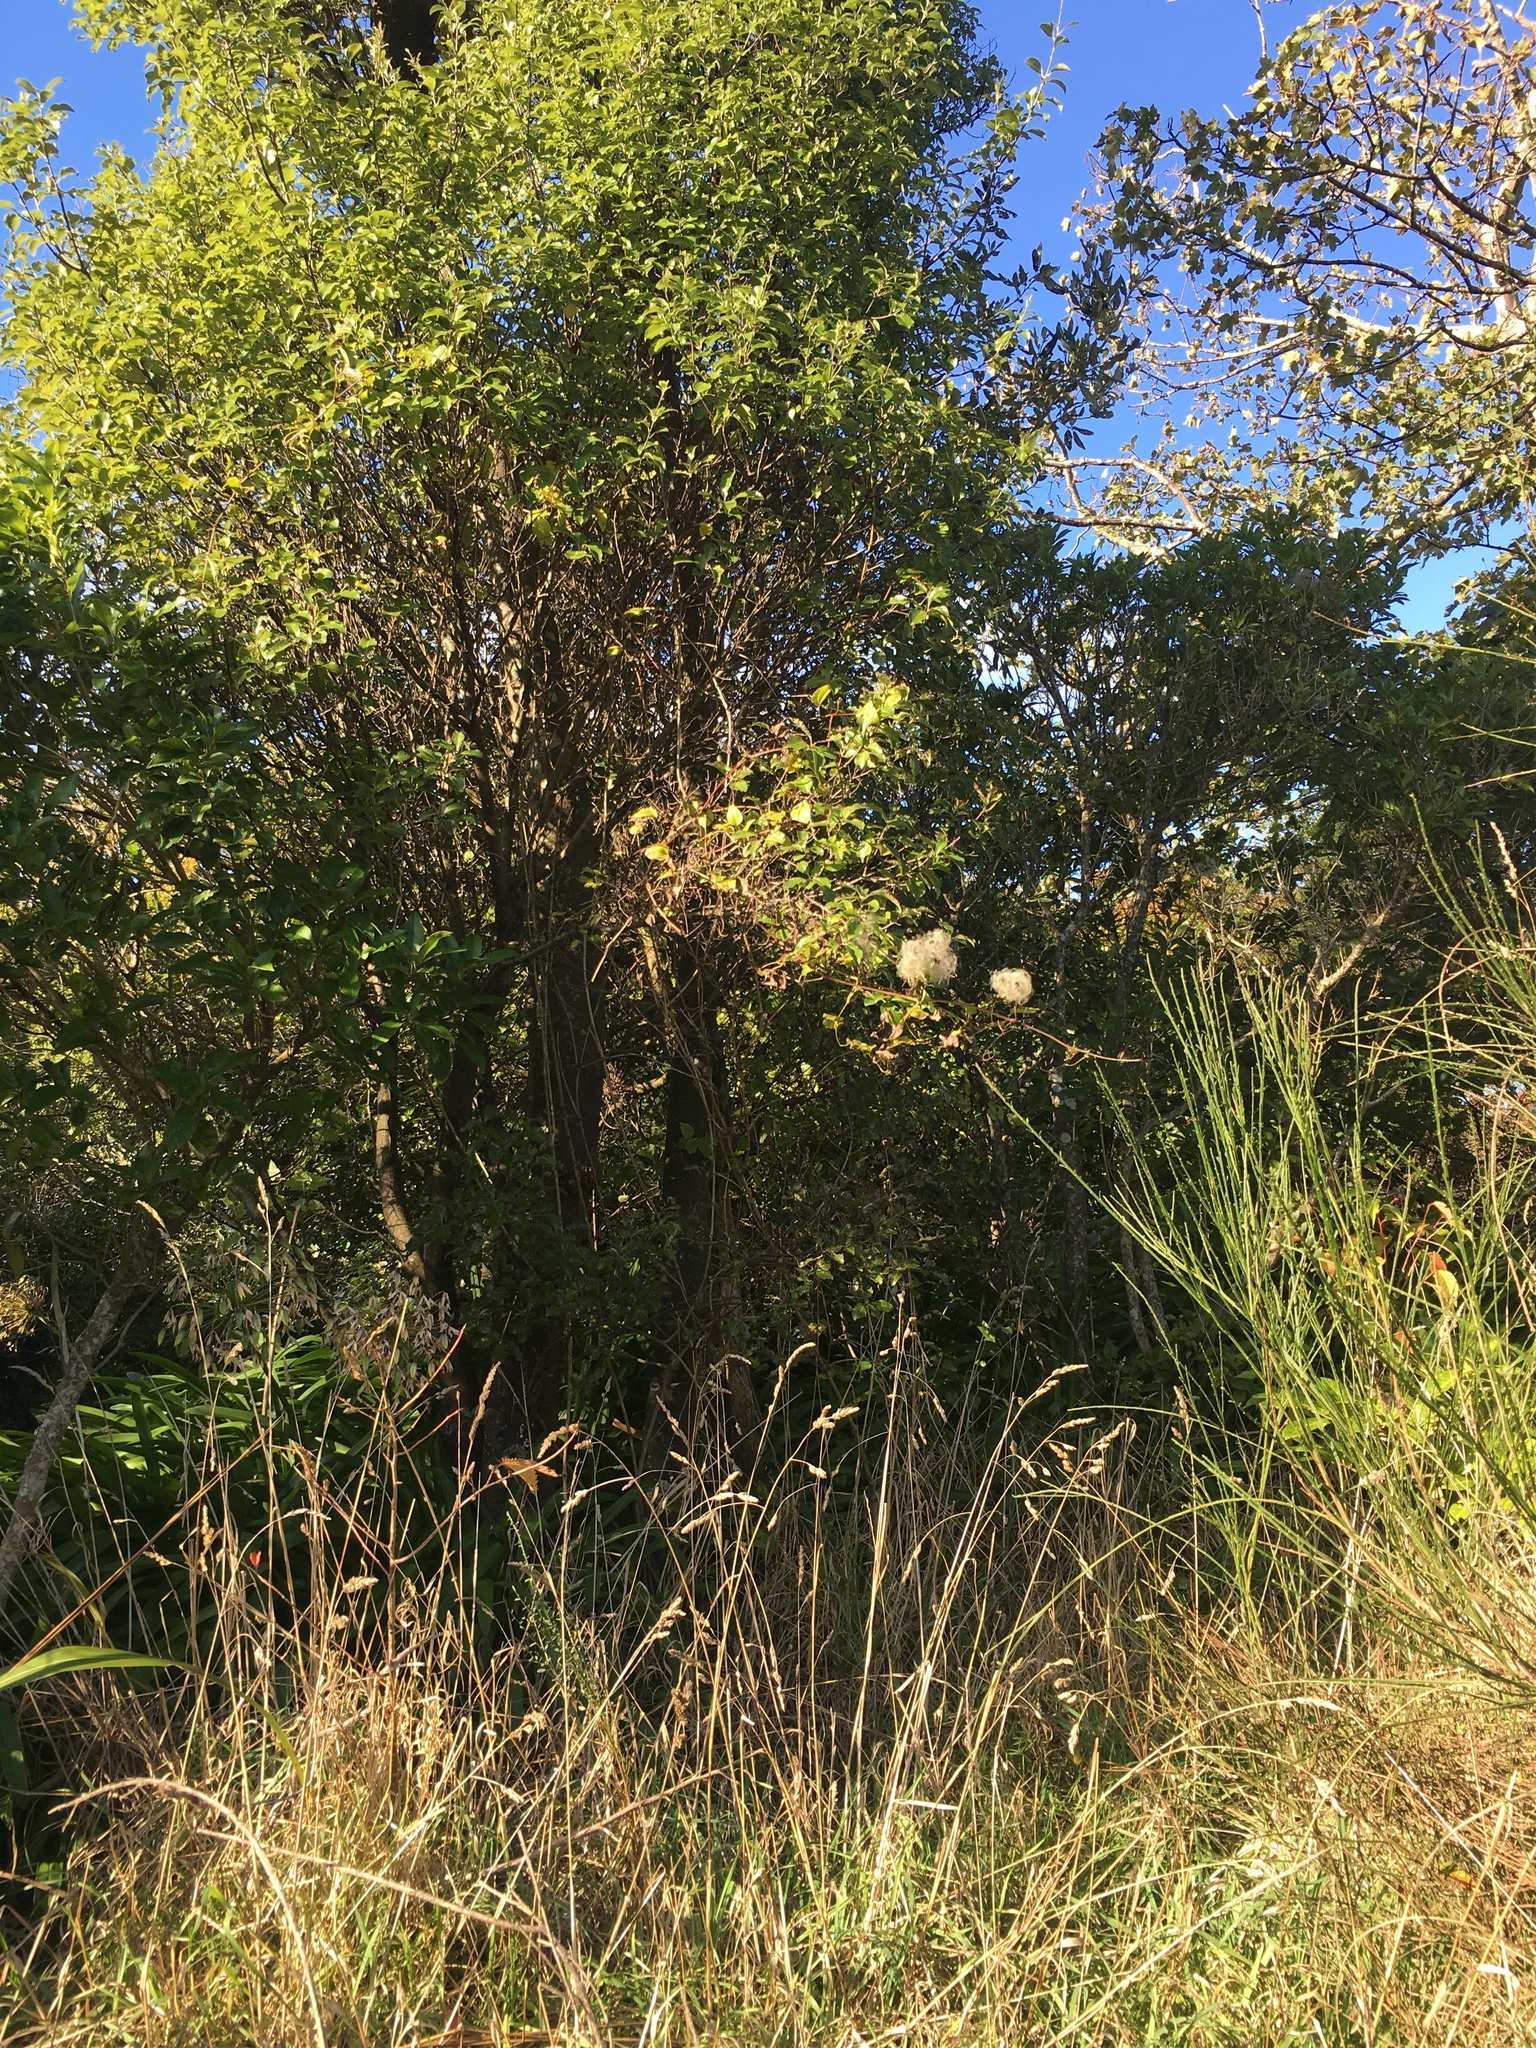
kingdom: Plantae
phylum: Tracheophyta
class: Magnoliopsida
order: Ranunculales
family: Ranunculaceae
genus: Clematis
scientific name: Clematis vitalba
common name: Evergreen clematis
